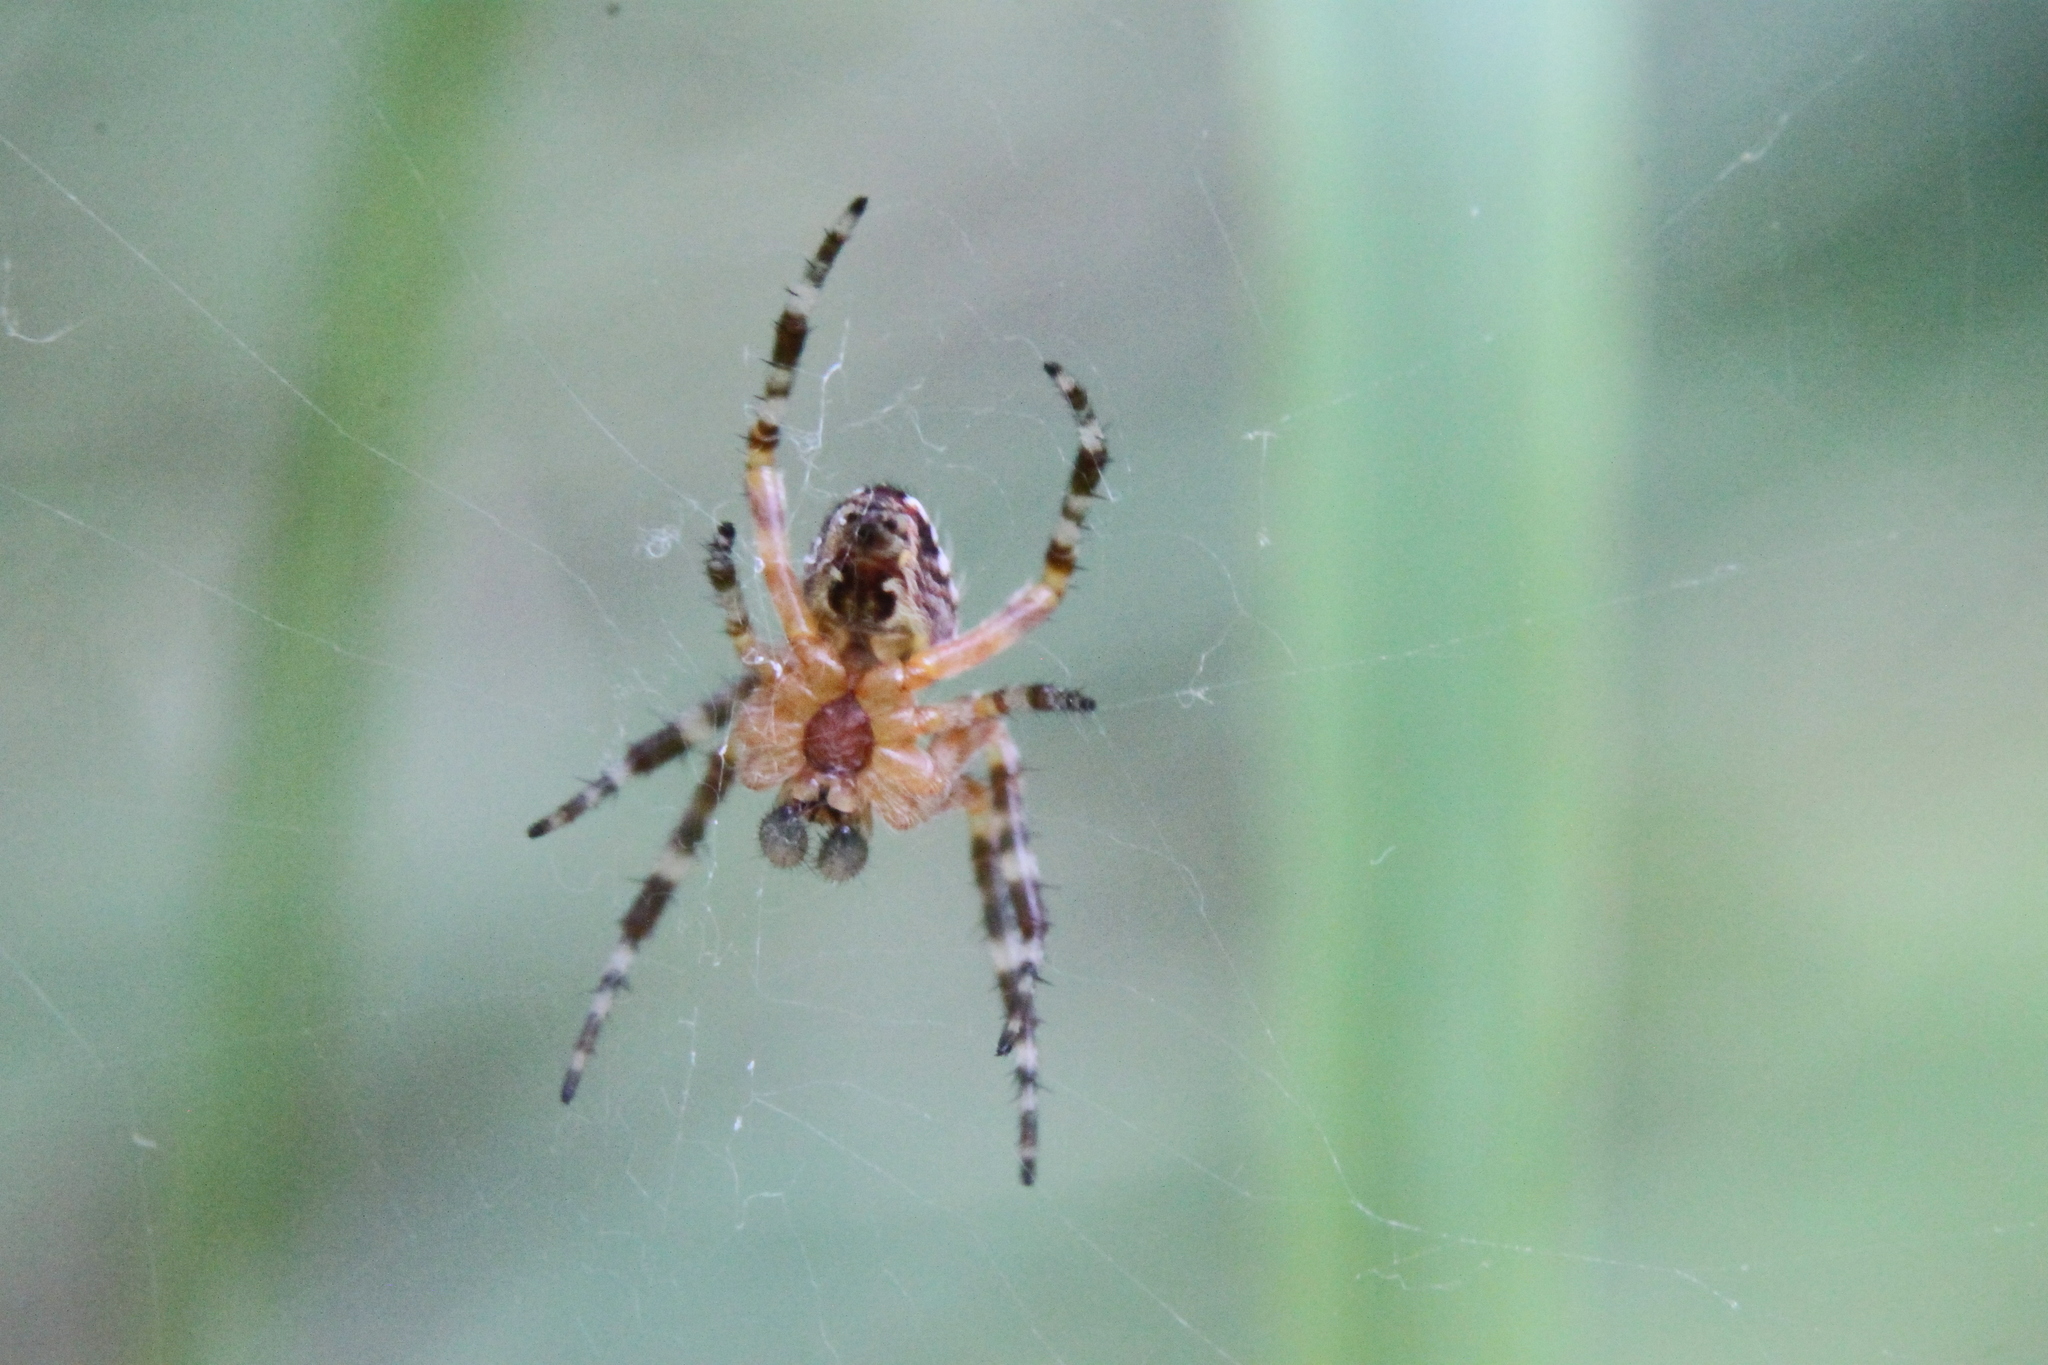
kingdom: Animalia
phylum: Arthropoda
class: Arachnida
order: Araneae
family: Araneidae
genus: Araneus
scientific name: Araneus diadematus
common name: Cross orbweaver
